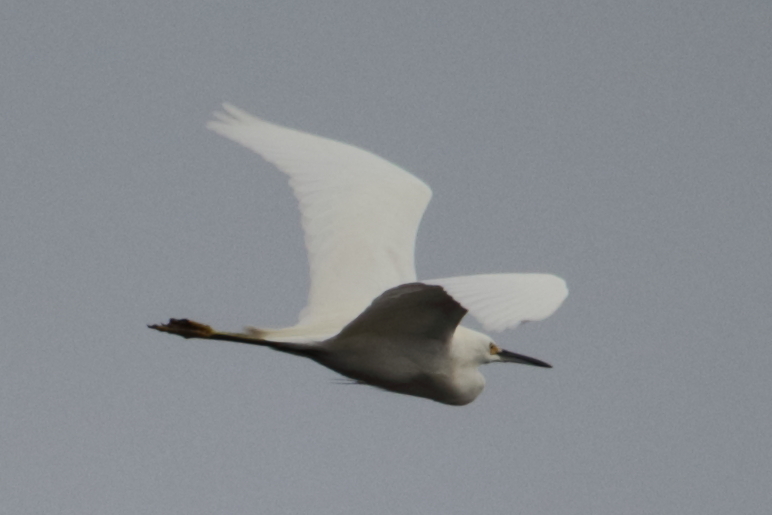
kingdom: Animalia
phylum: Chordata
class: Aves
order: Pelecaniformes
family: Ardeidae
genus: Egretta
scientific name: Egretta thula
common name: Snowy egret
